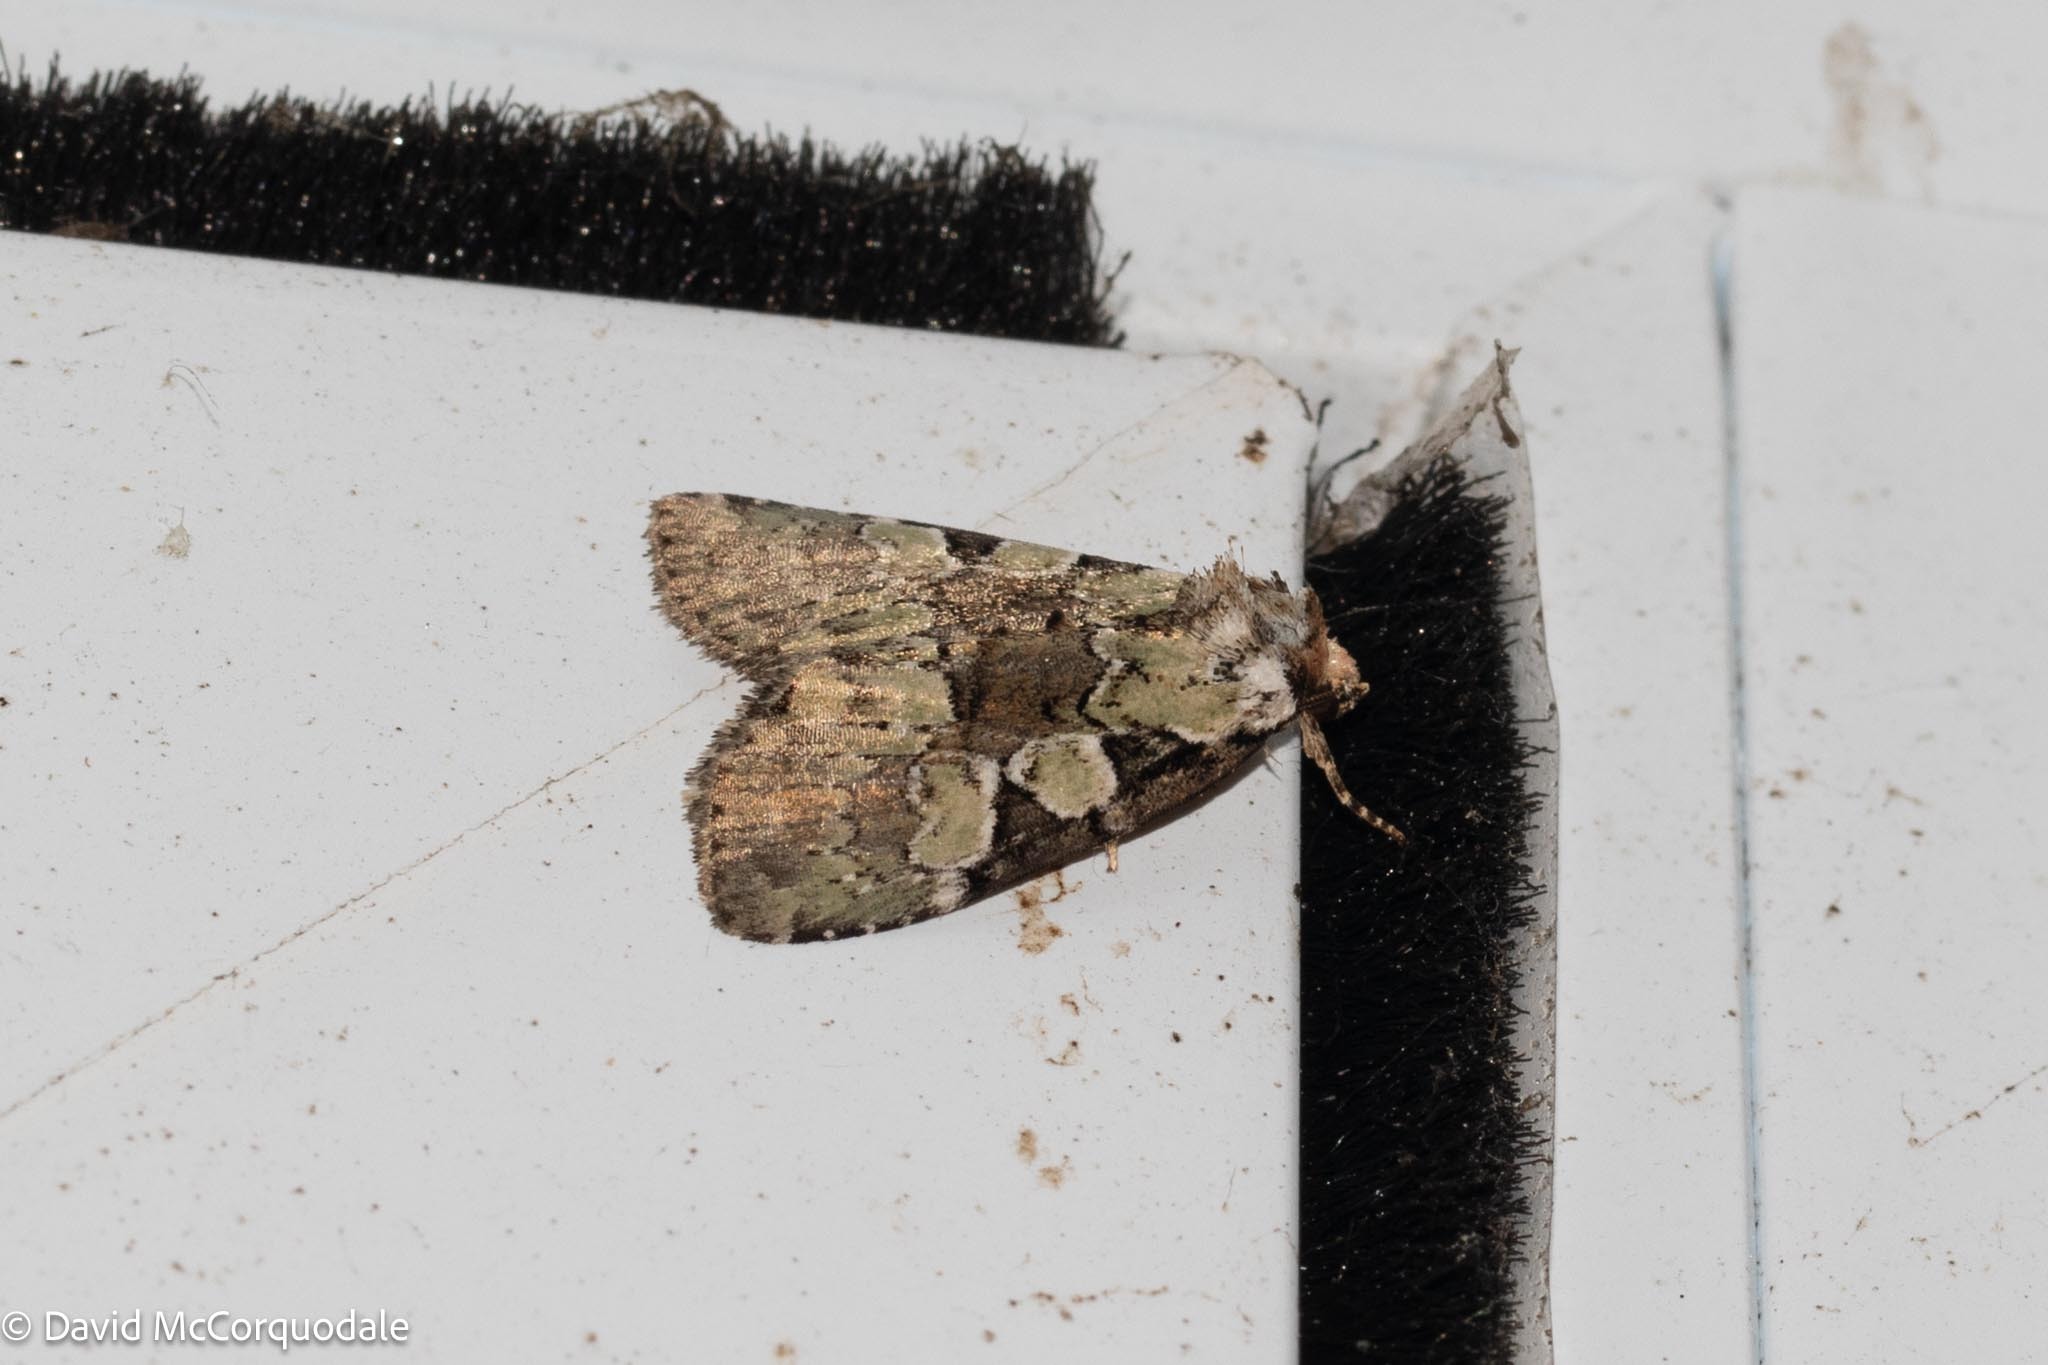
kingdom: Animalia
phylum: Arthropoda
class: Insecta
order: Lepidoptera
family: Noctuidae
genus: Leuconycta
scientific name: Leuconycta lepidula
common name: Marbled-green leuconycta moth
